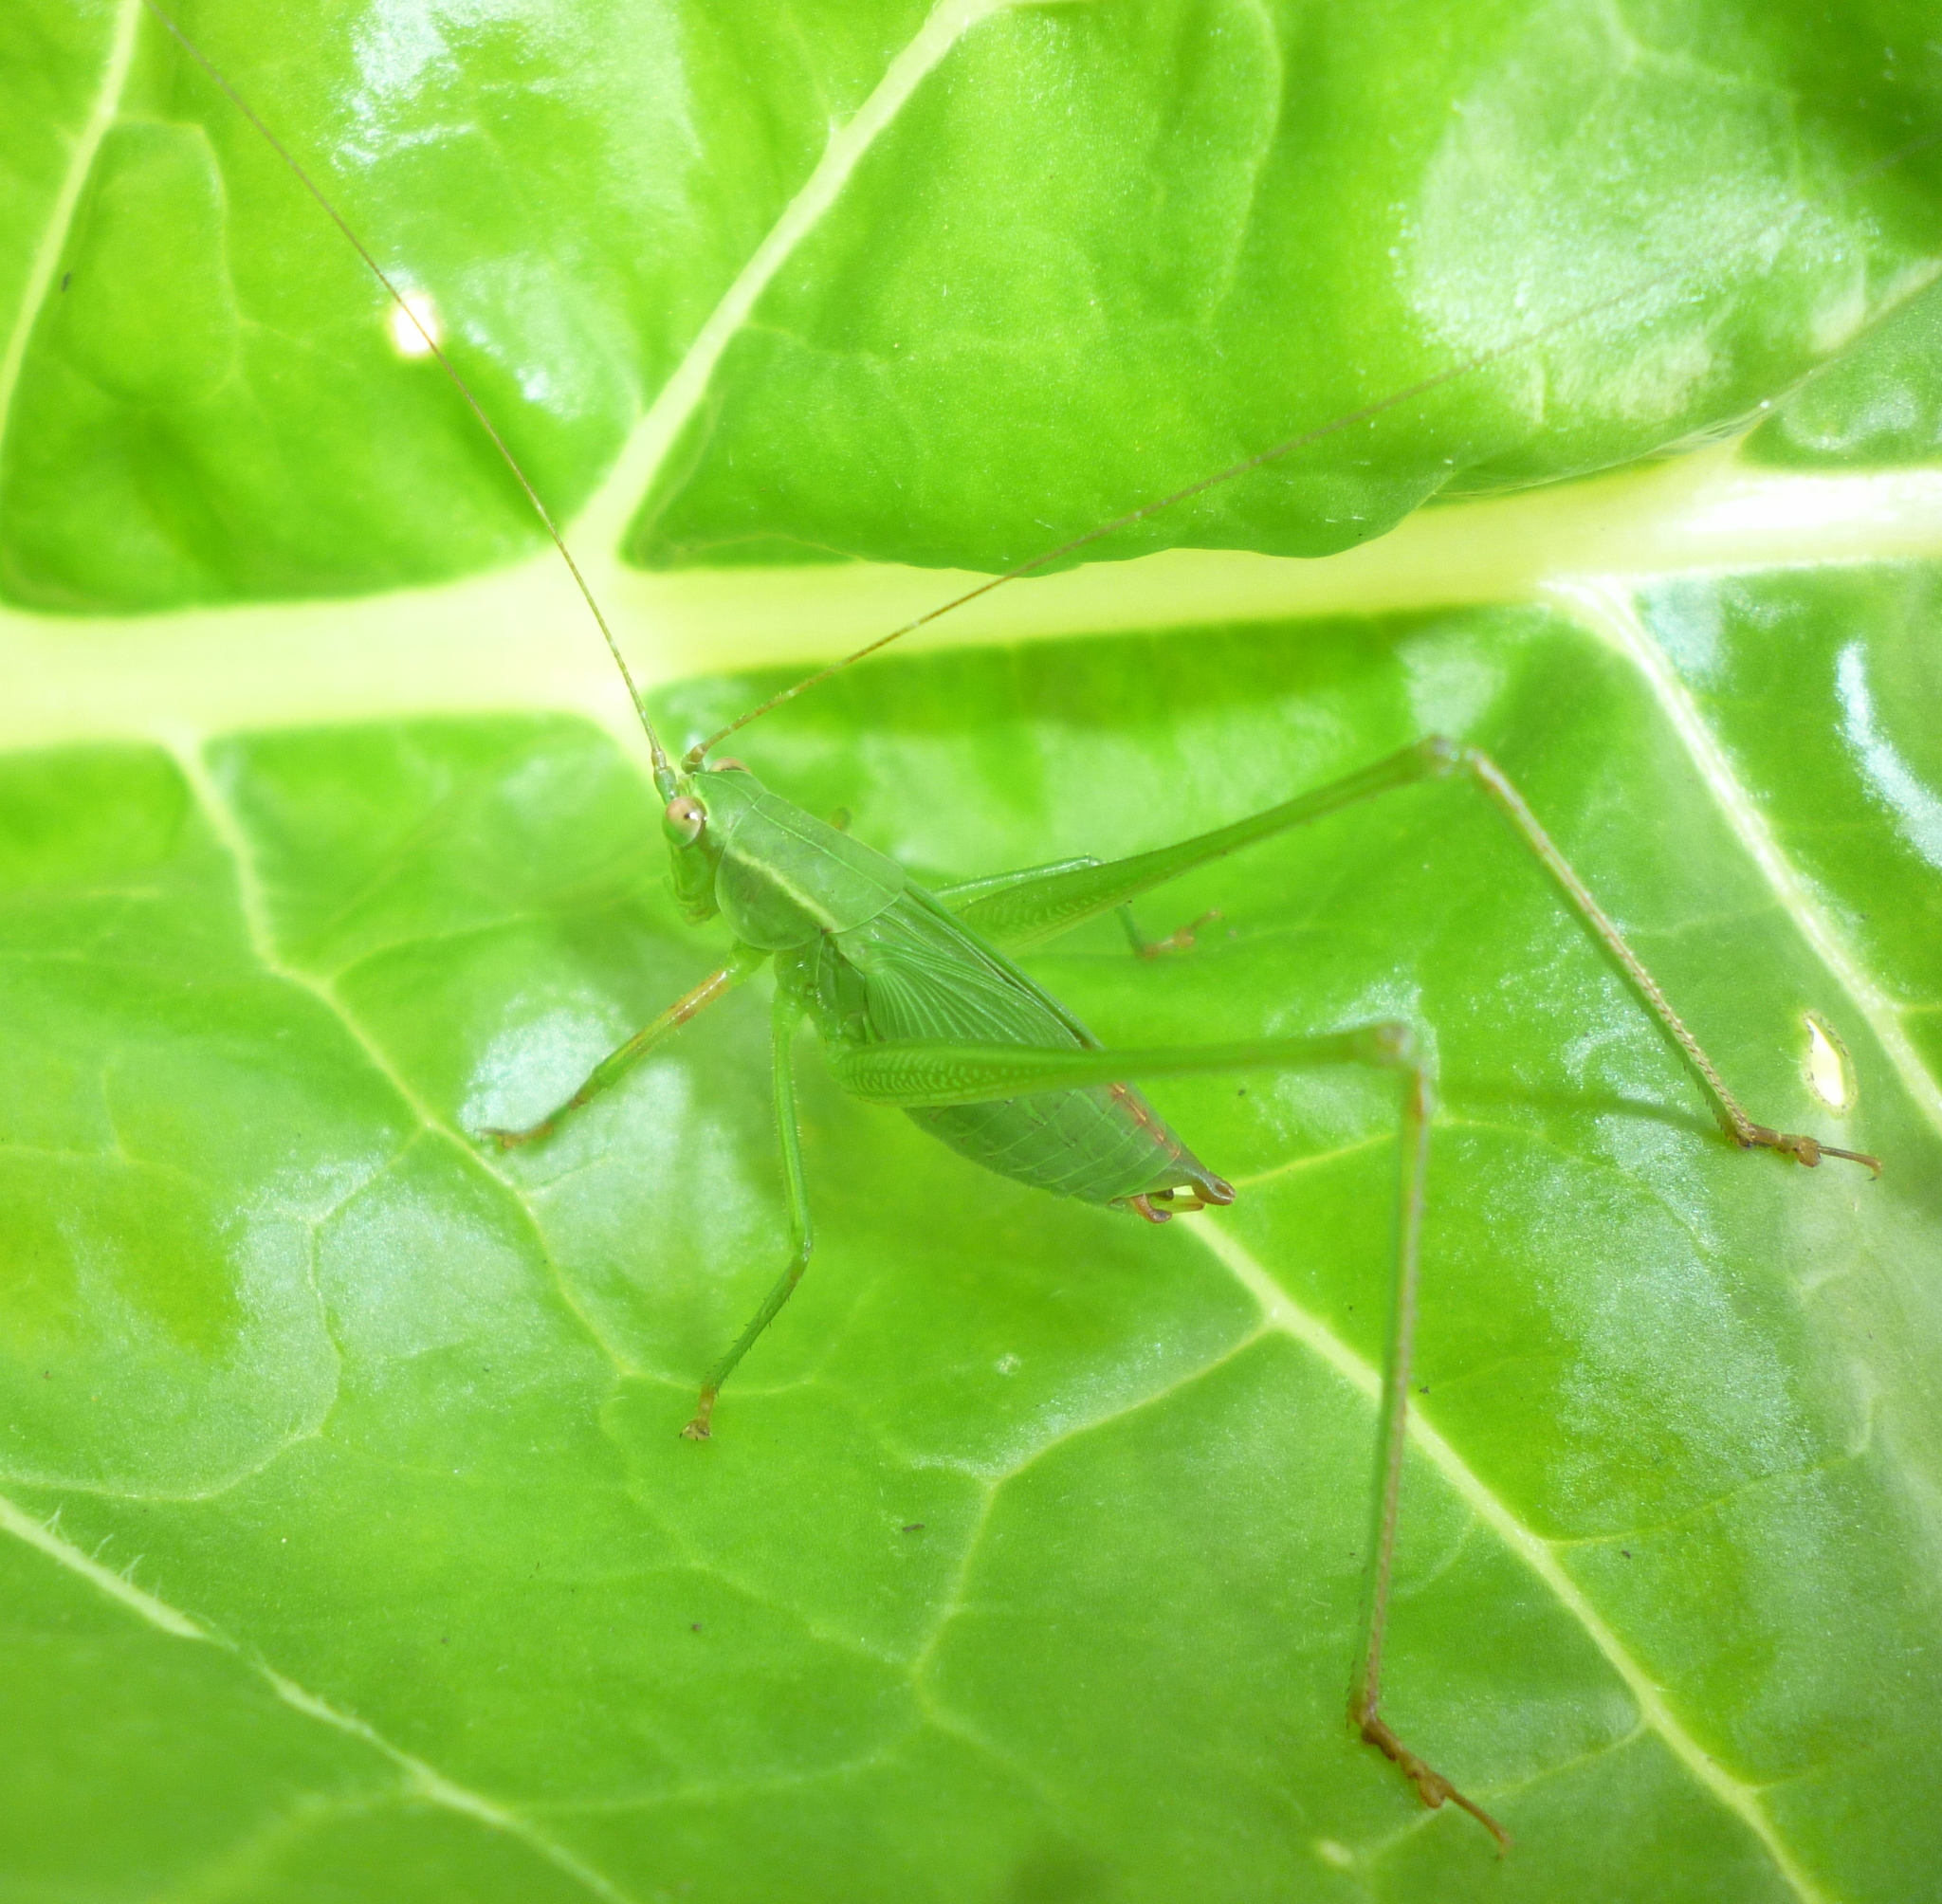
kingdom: Animalia
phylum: Arthropoda
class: Insecta
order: Orthoptera
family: Tettigoniidae
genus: Scudderia
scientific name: Scudderia furcata
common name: Fork-tailed bush katydid
